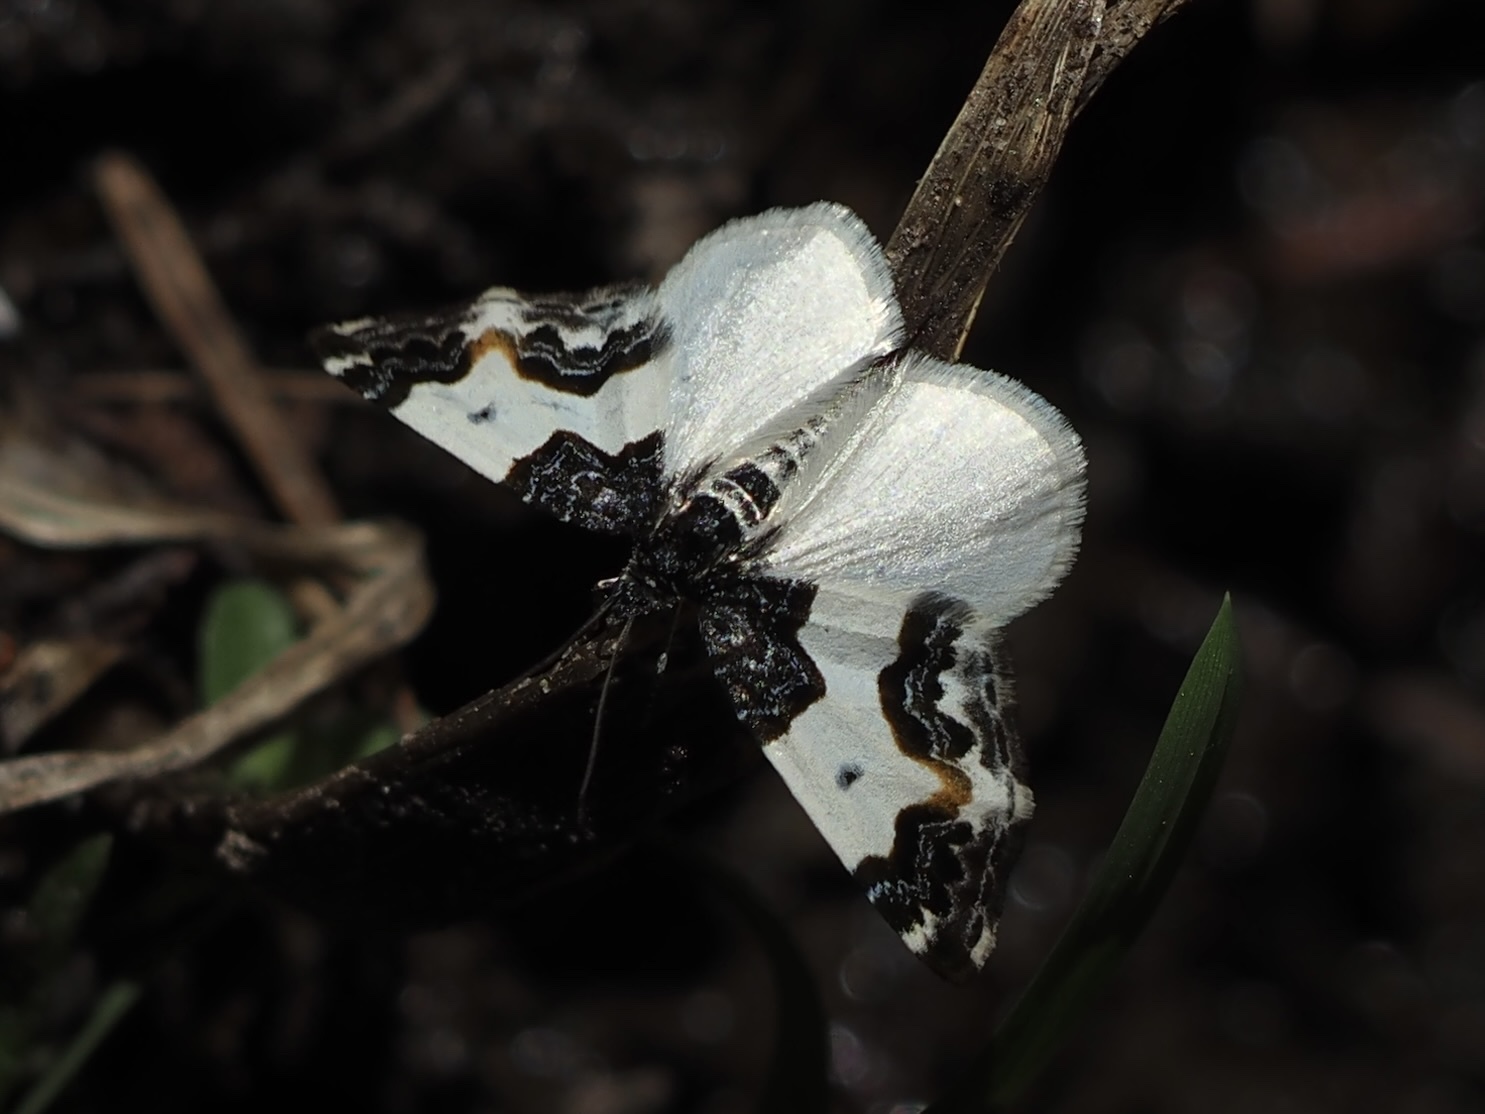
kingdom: Animalia
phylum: Arthropoda
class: Insecta
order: Lepidoptera
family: Geometridae
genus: Mesoleuca
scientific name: Mesoleuca gratulata
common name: Half-white carpet moth
